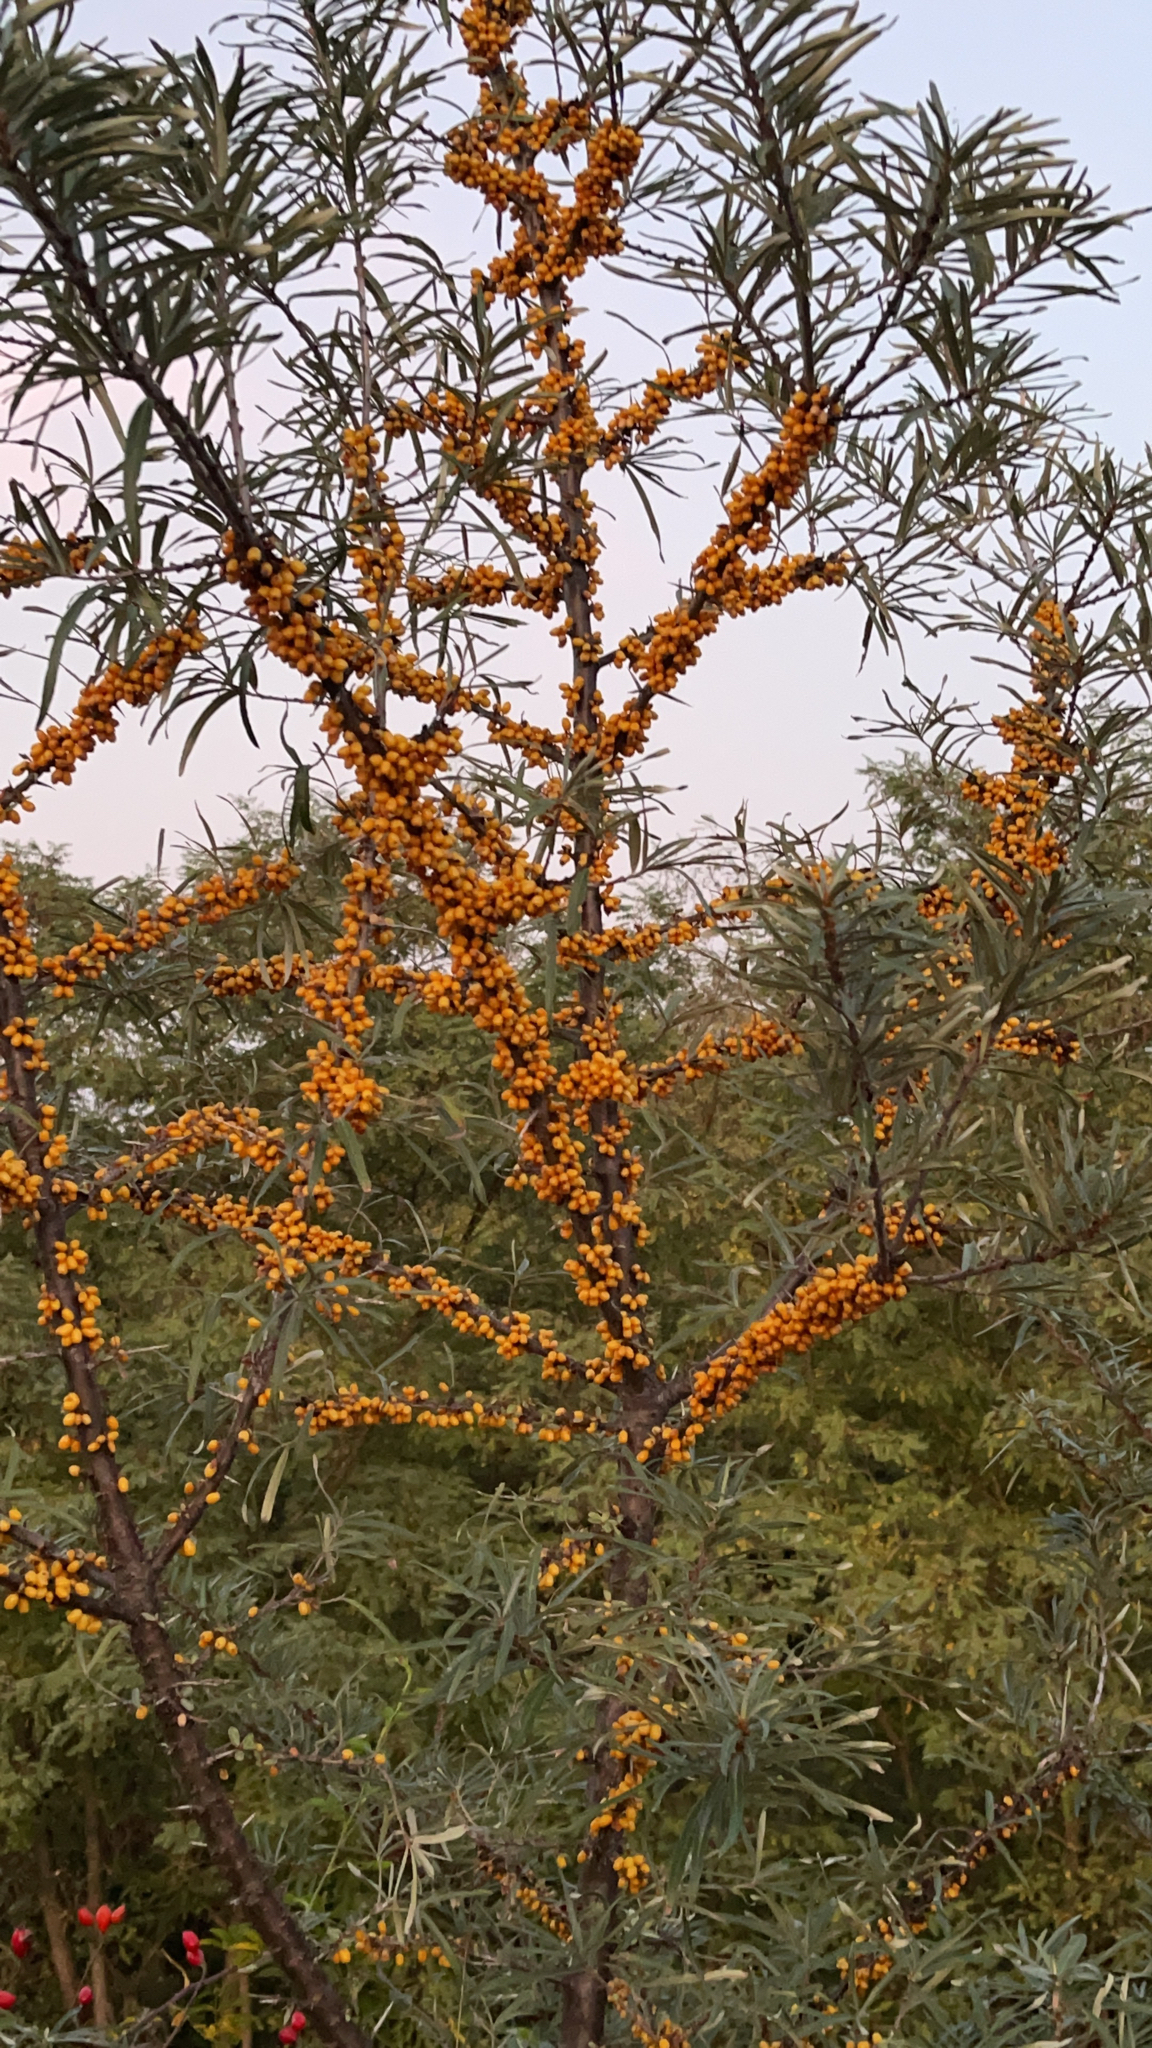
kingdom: Plantae
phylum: Tracheophyta
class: Magnoliopsida
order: Rosales
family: Elaeagnaceae
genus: Hippophae
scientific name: Hippophae rhamnoides
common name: Sea-buckthorn
